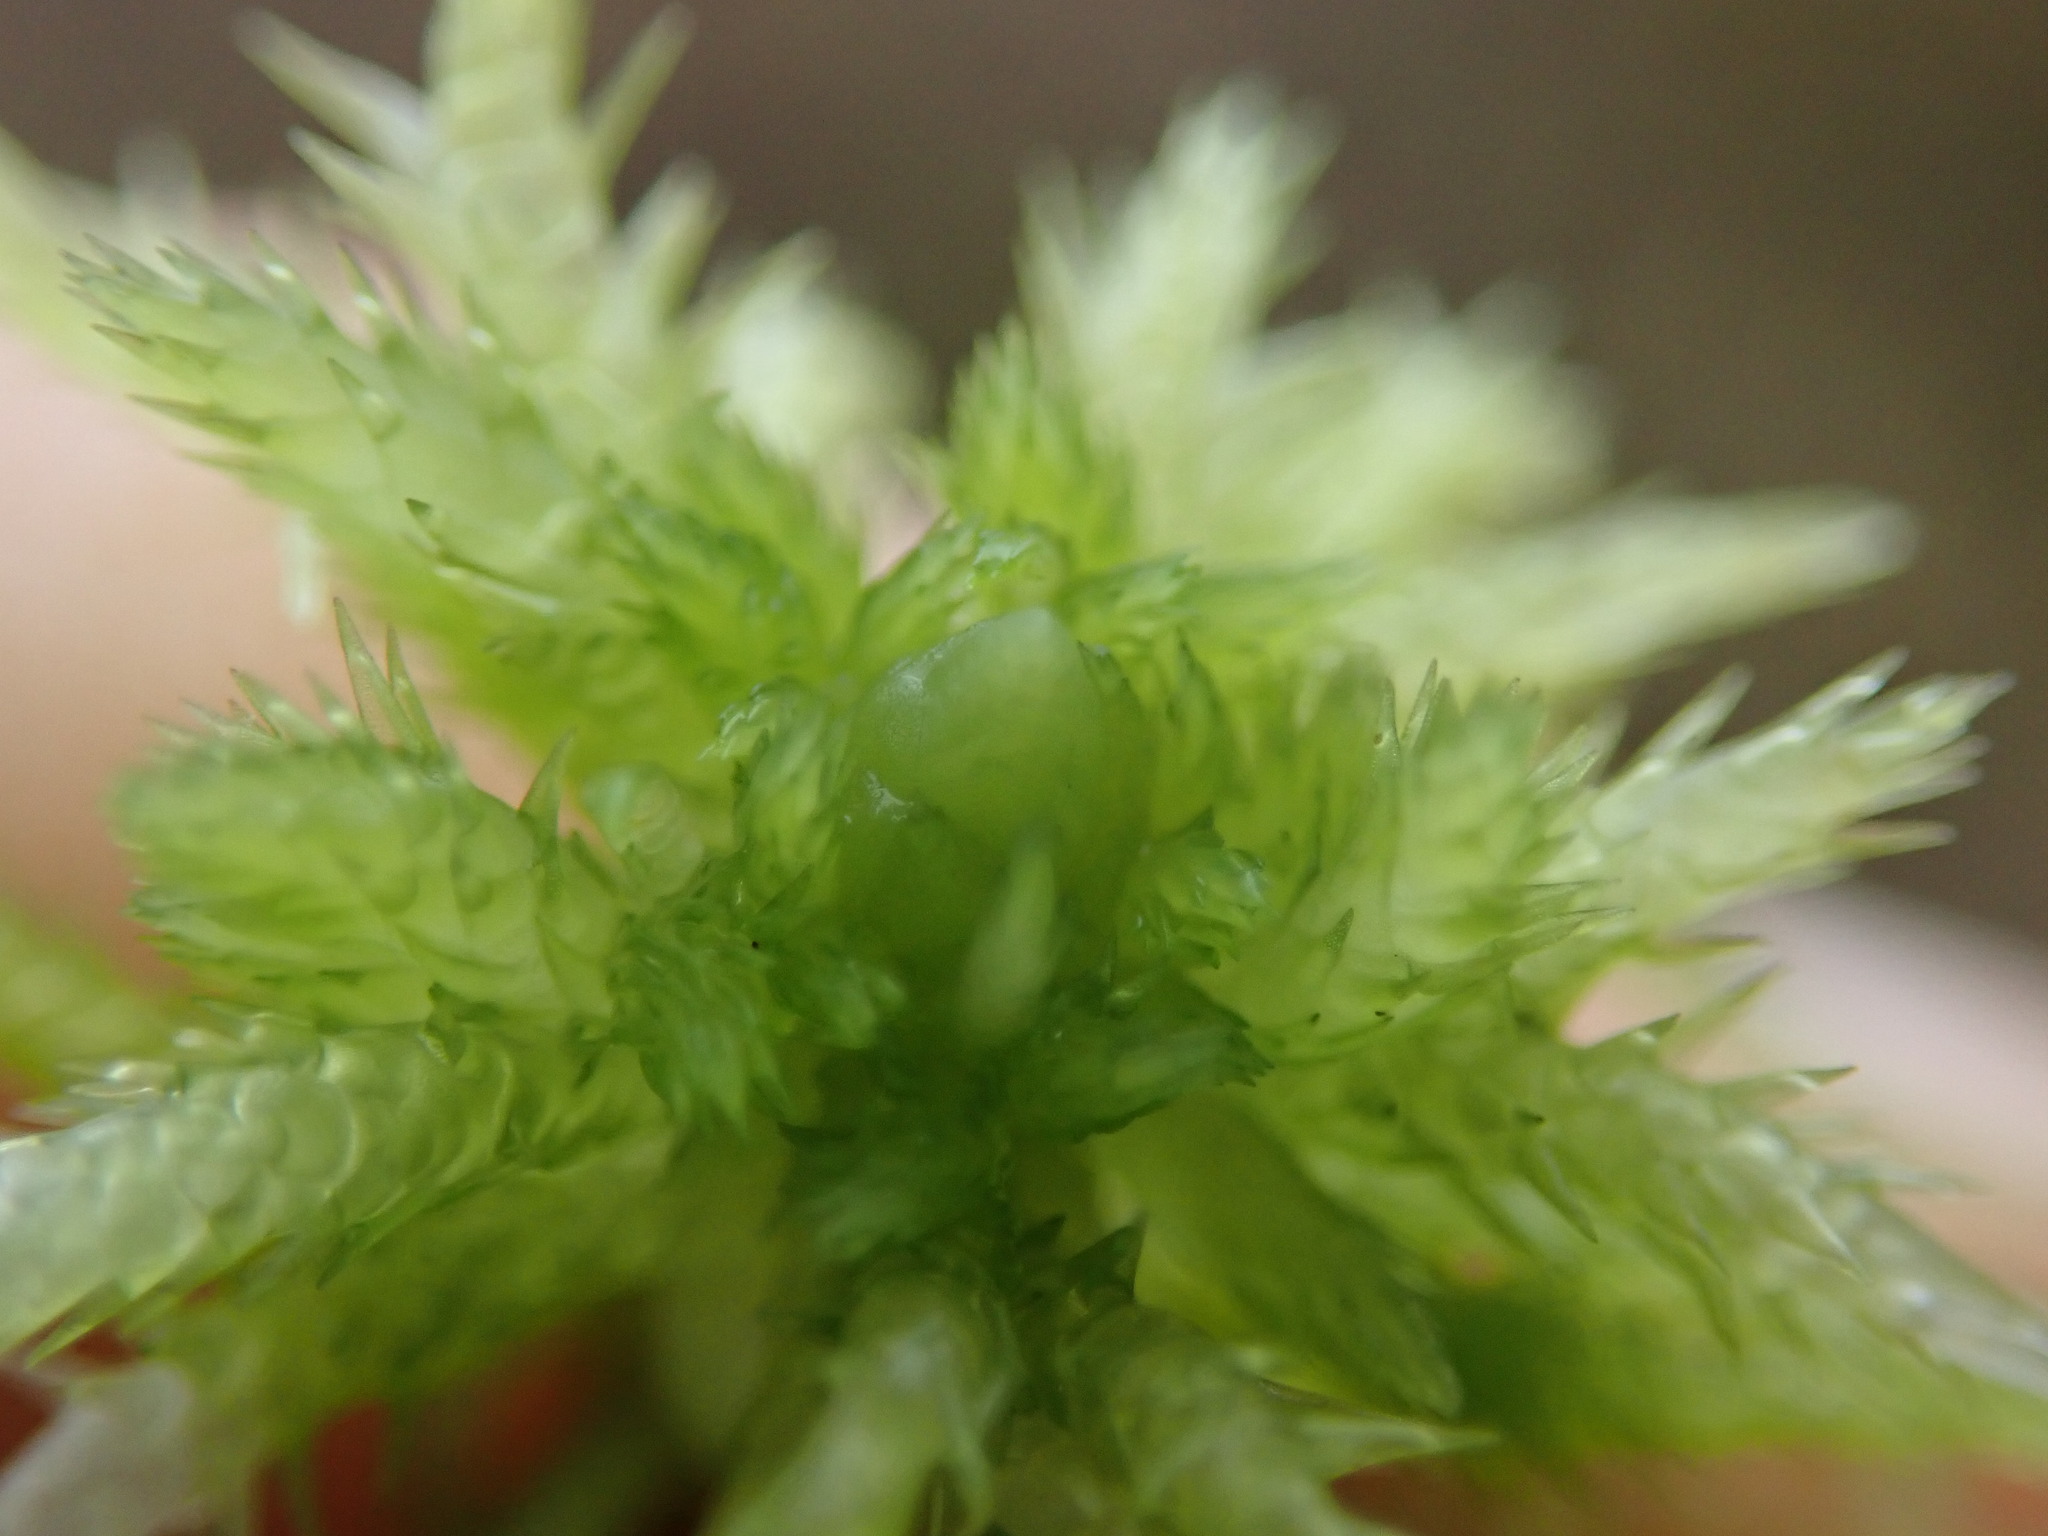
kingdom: Plantae
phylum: Bryophyta
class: Sphagnopsida
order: Sphagnales
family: Sphagnaceae
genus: Sphagnum
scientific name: Sphagnum squarrosum
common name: Shaggy peat moss
